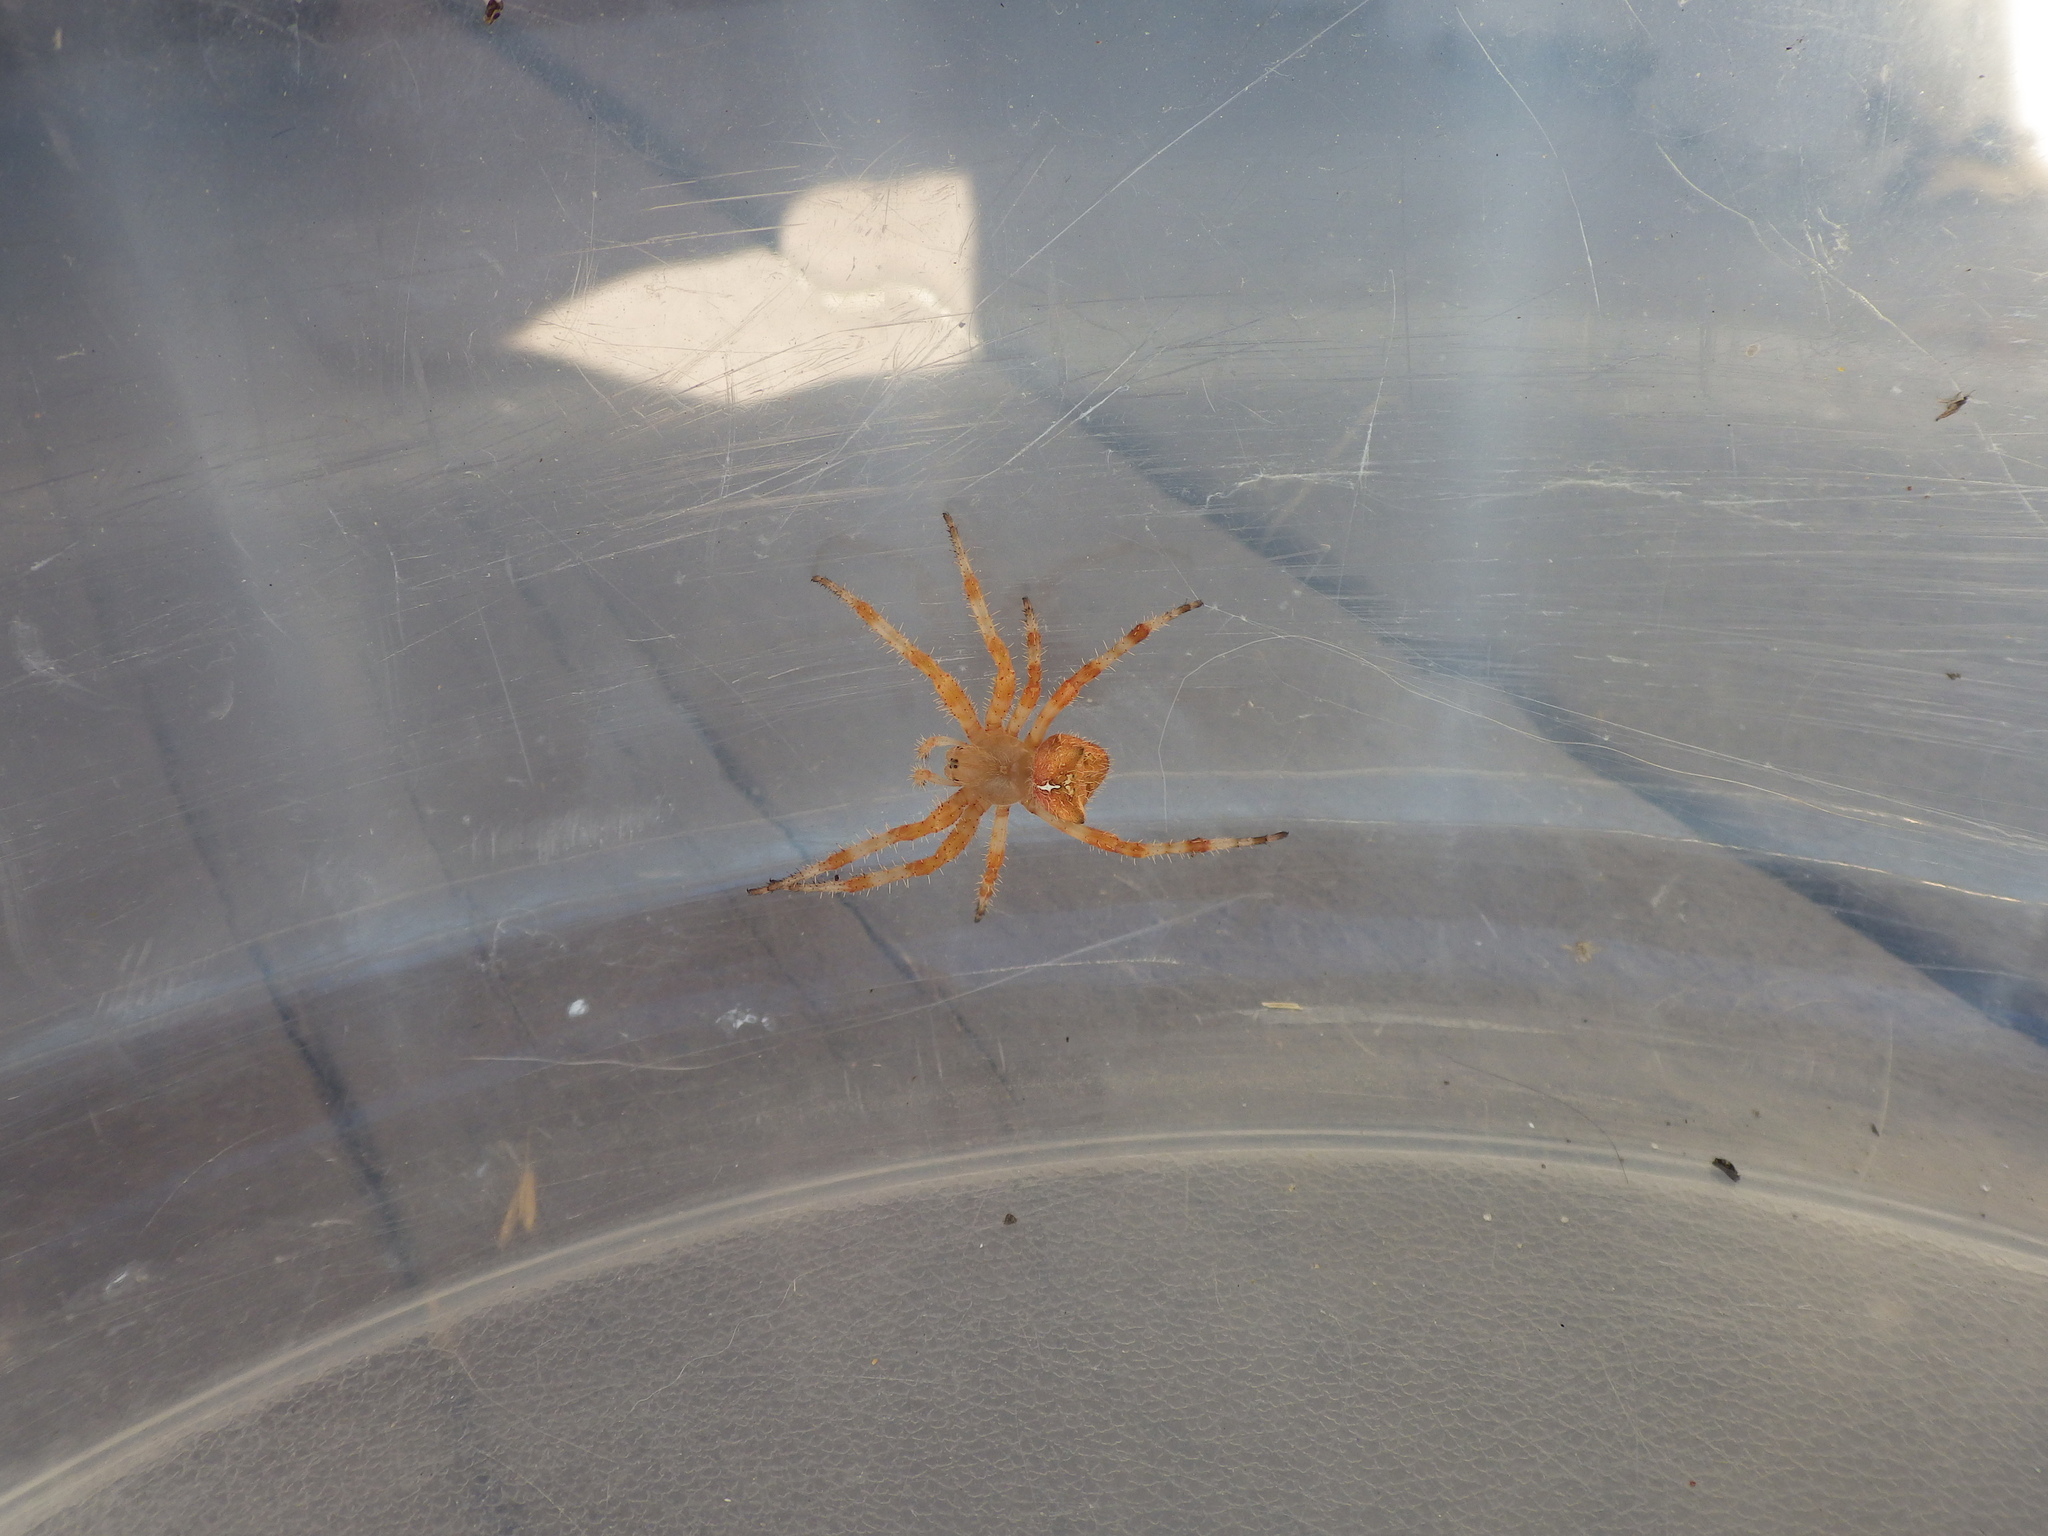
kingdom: Animalia
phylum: Arthropoda
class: Arachnida
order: Araneae
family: Araneidae
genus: Araneus
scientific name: Araneus gemmoides
